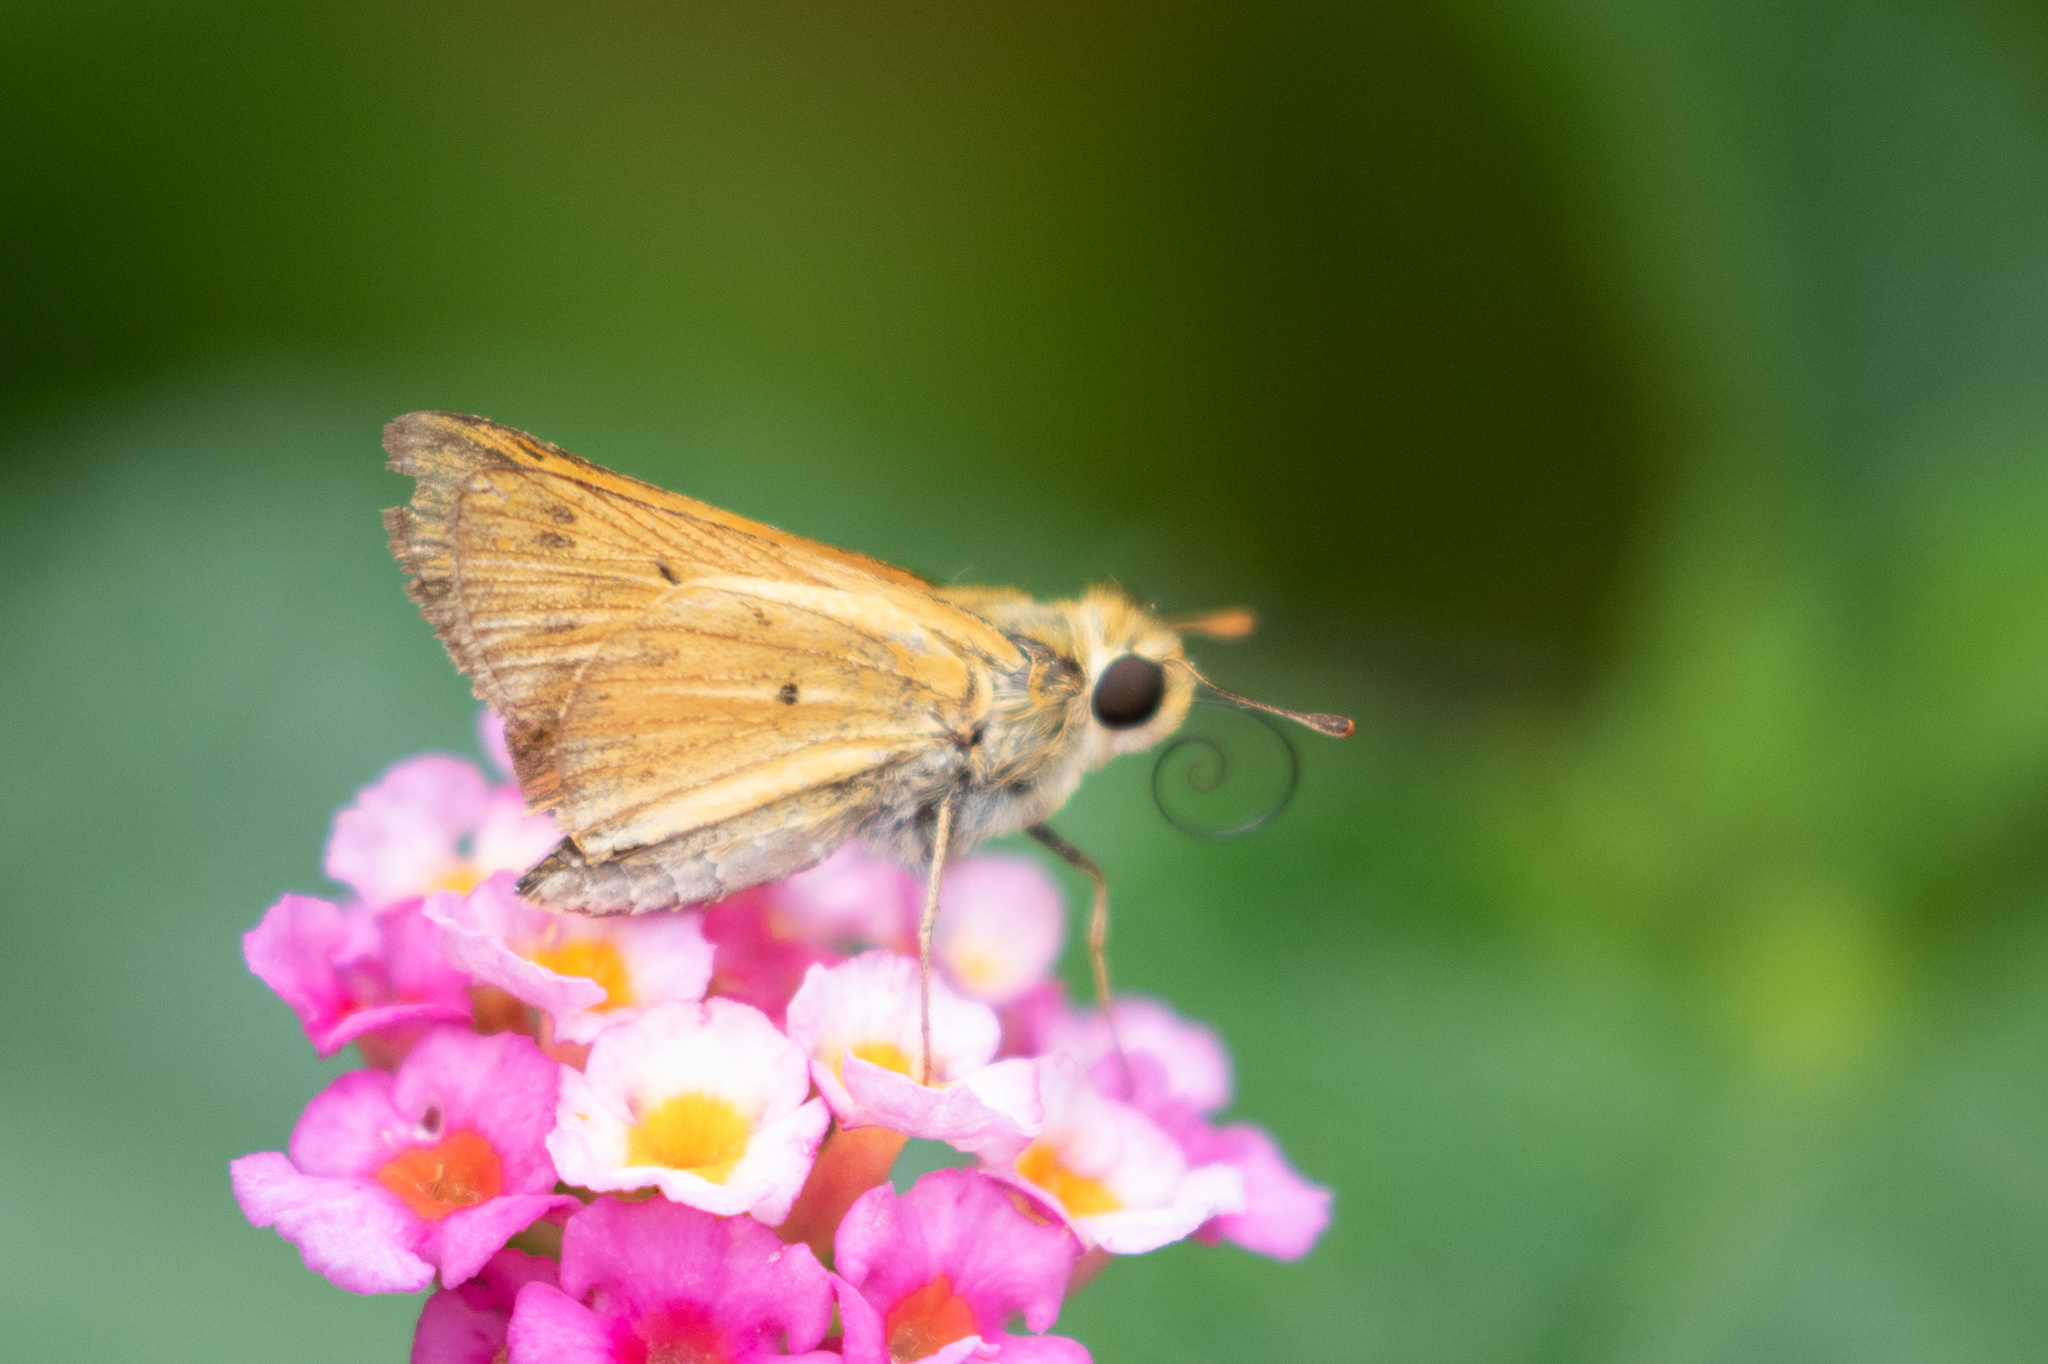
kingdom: Animalia
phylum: Arthropoda
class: Insecta
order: Lepidoptera
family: Hesperiidae
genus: Hylephila
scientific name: Hylephila phyleus
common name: Fiery skipper
